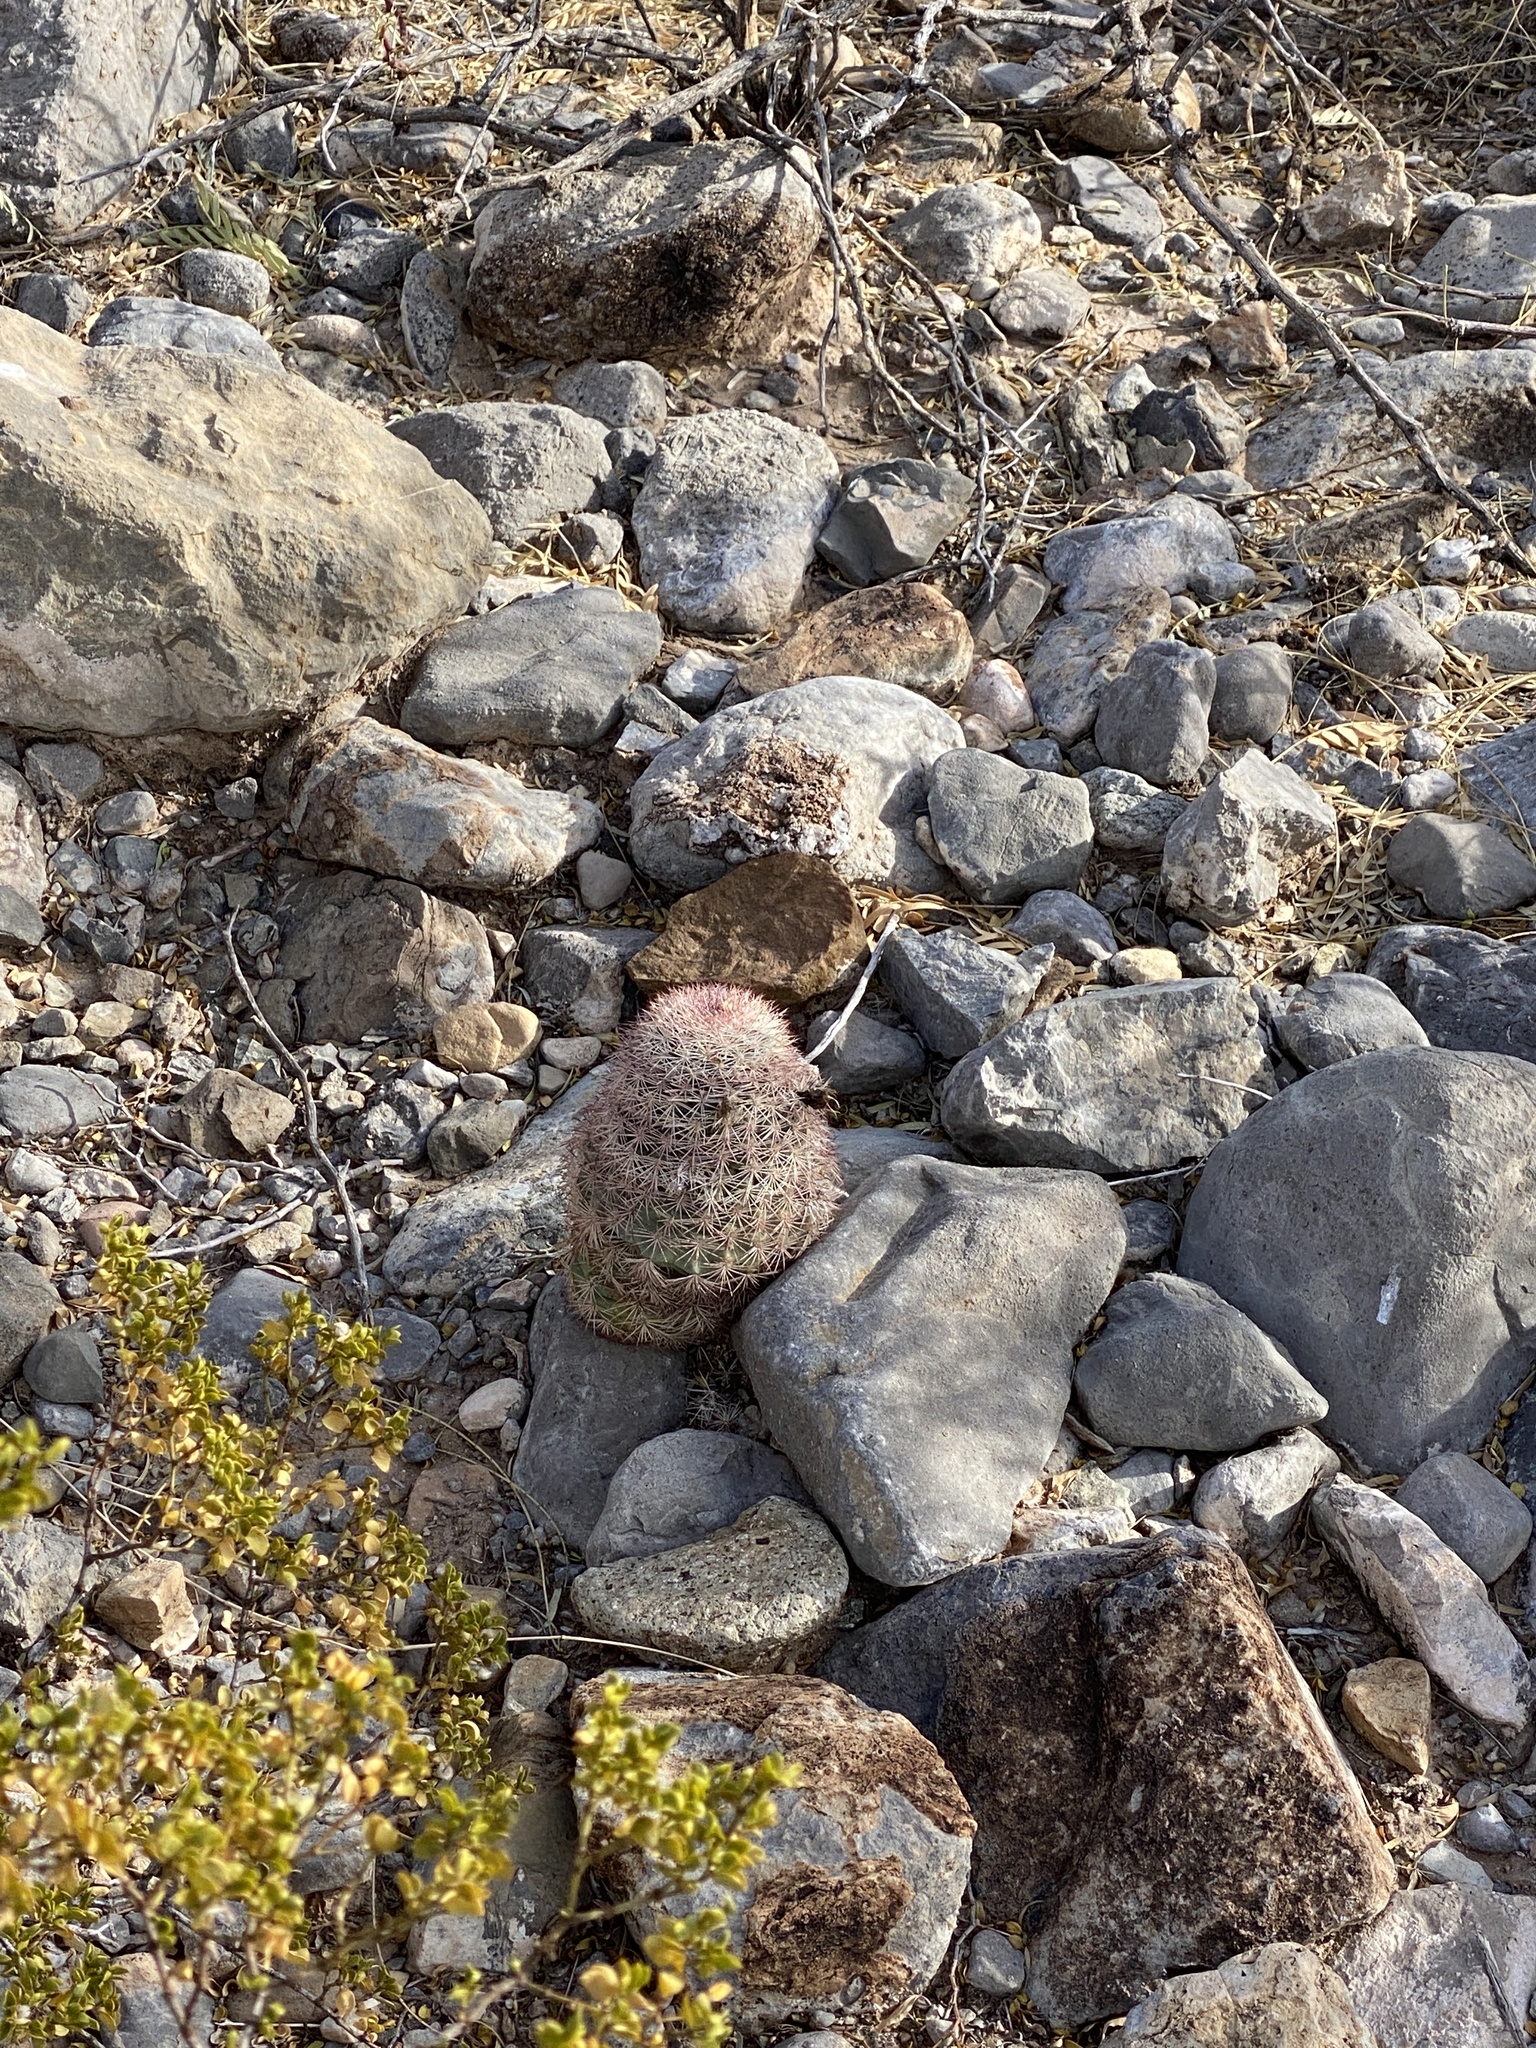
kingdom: Plantae
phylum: Tracheophyta
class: Magnoliopsida
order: Caryophyllales
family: Cactaceae
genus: Echinocereus
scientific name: Echinocereus dasyacanthus
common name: Spiny hedgehog cactus
